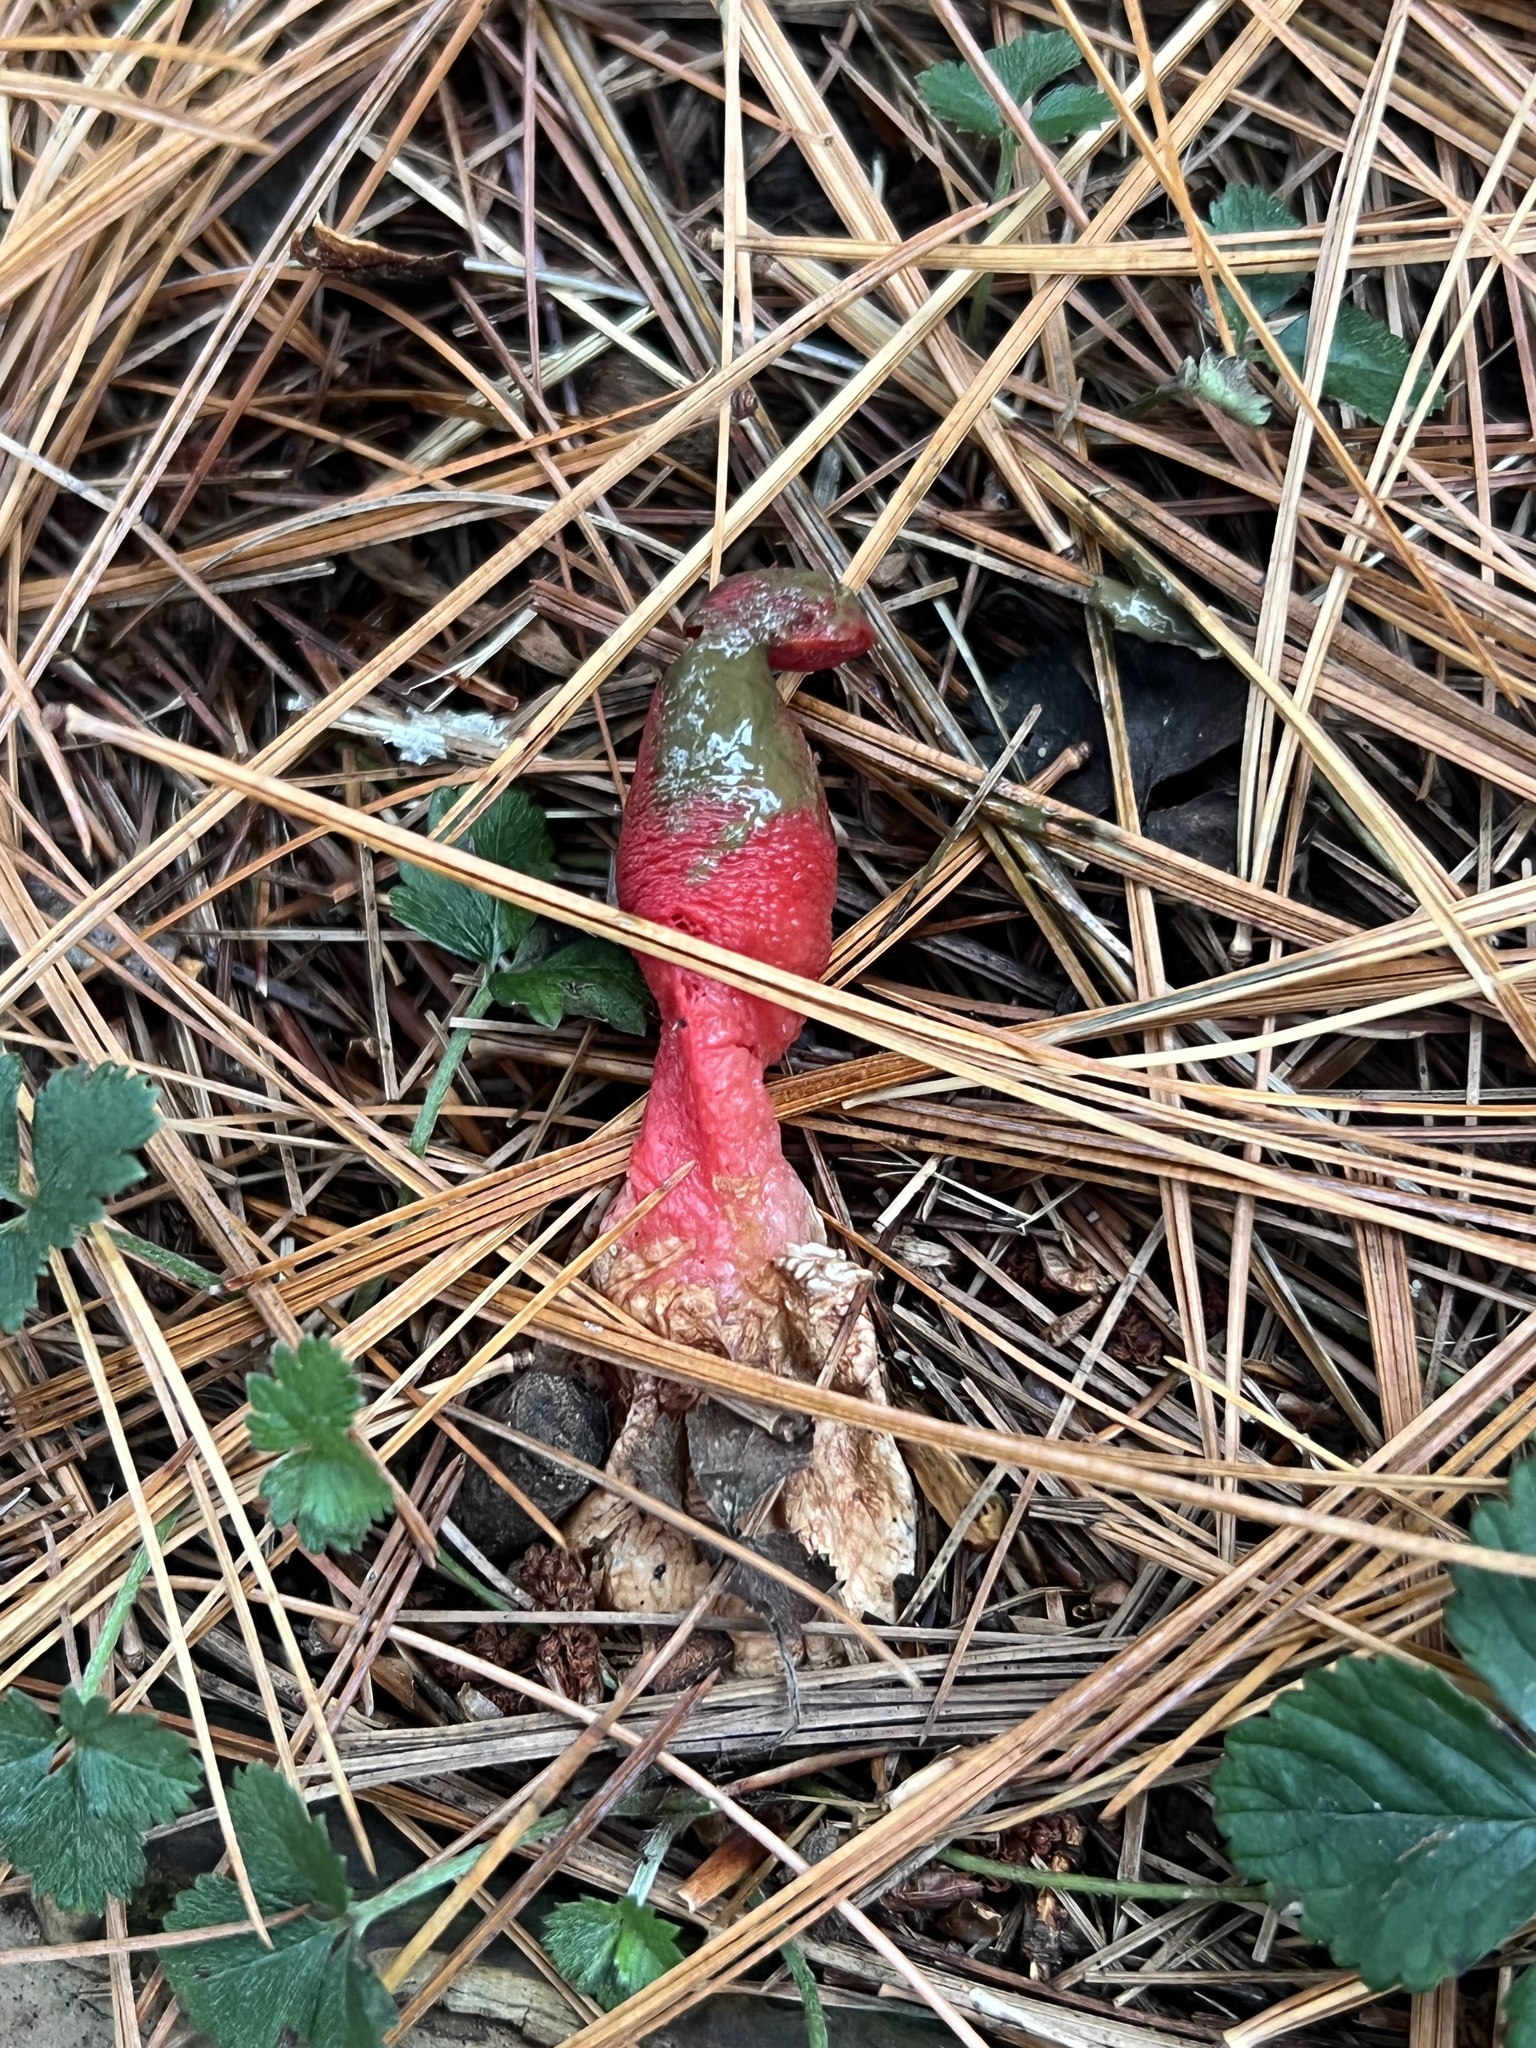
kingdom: Fungi
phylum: Basidiomycota
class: Agaricomycetes
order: Phallales
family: Phallaceae
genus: Mutinus
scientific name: Mutinus elegans
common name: Devil's dipstick
